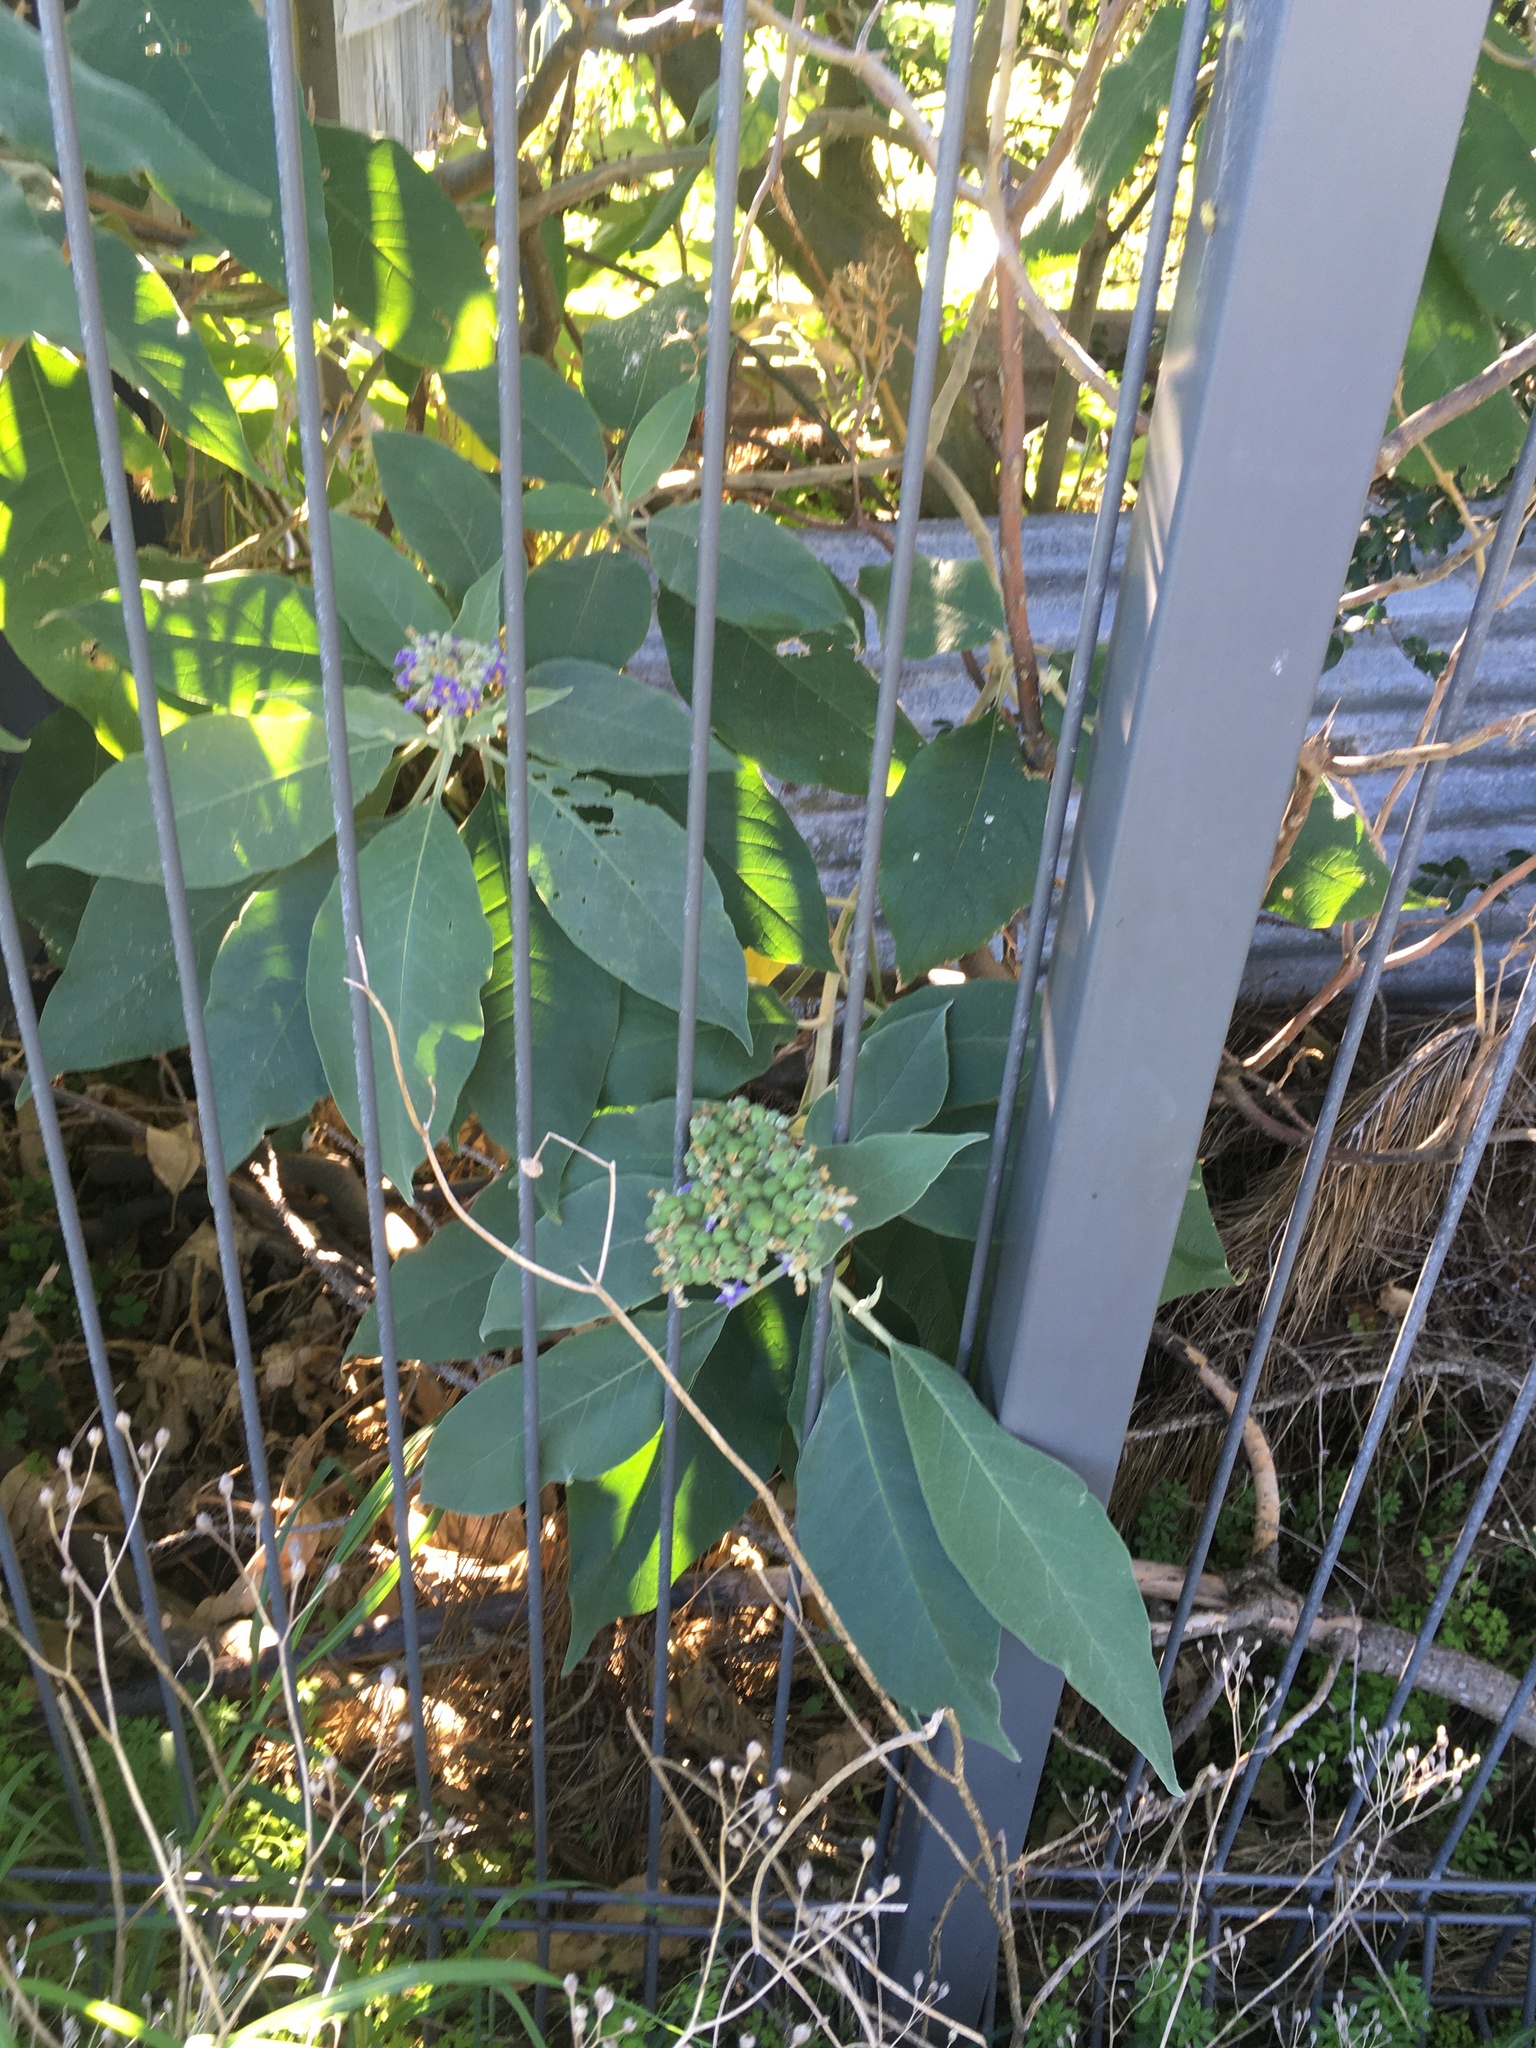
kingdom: Plantae
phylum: Tracheophyta
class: Magnoliopsida
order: Solanales
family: Solanaceae
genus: Solanum
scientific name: Solanum mauritianum
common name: Earleaf nightshade
